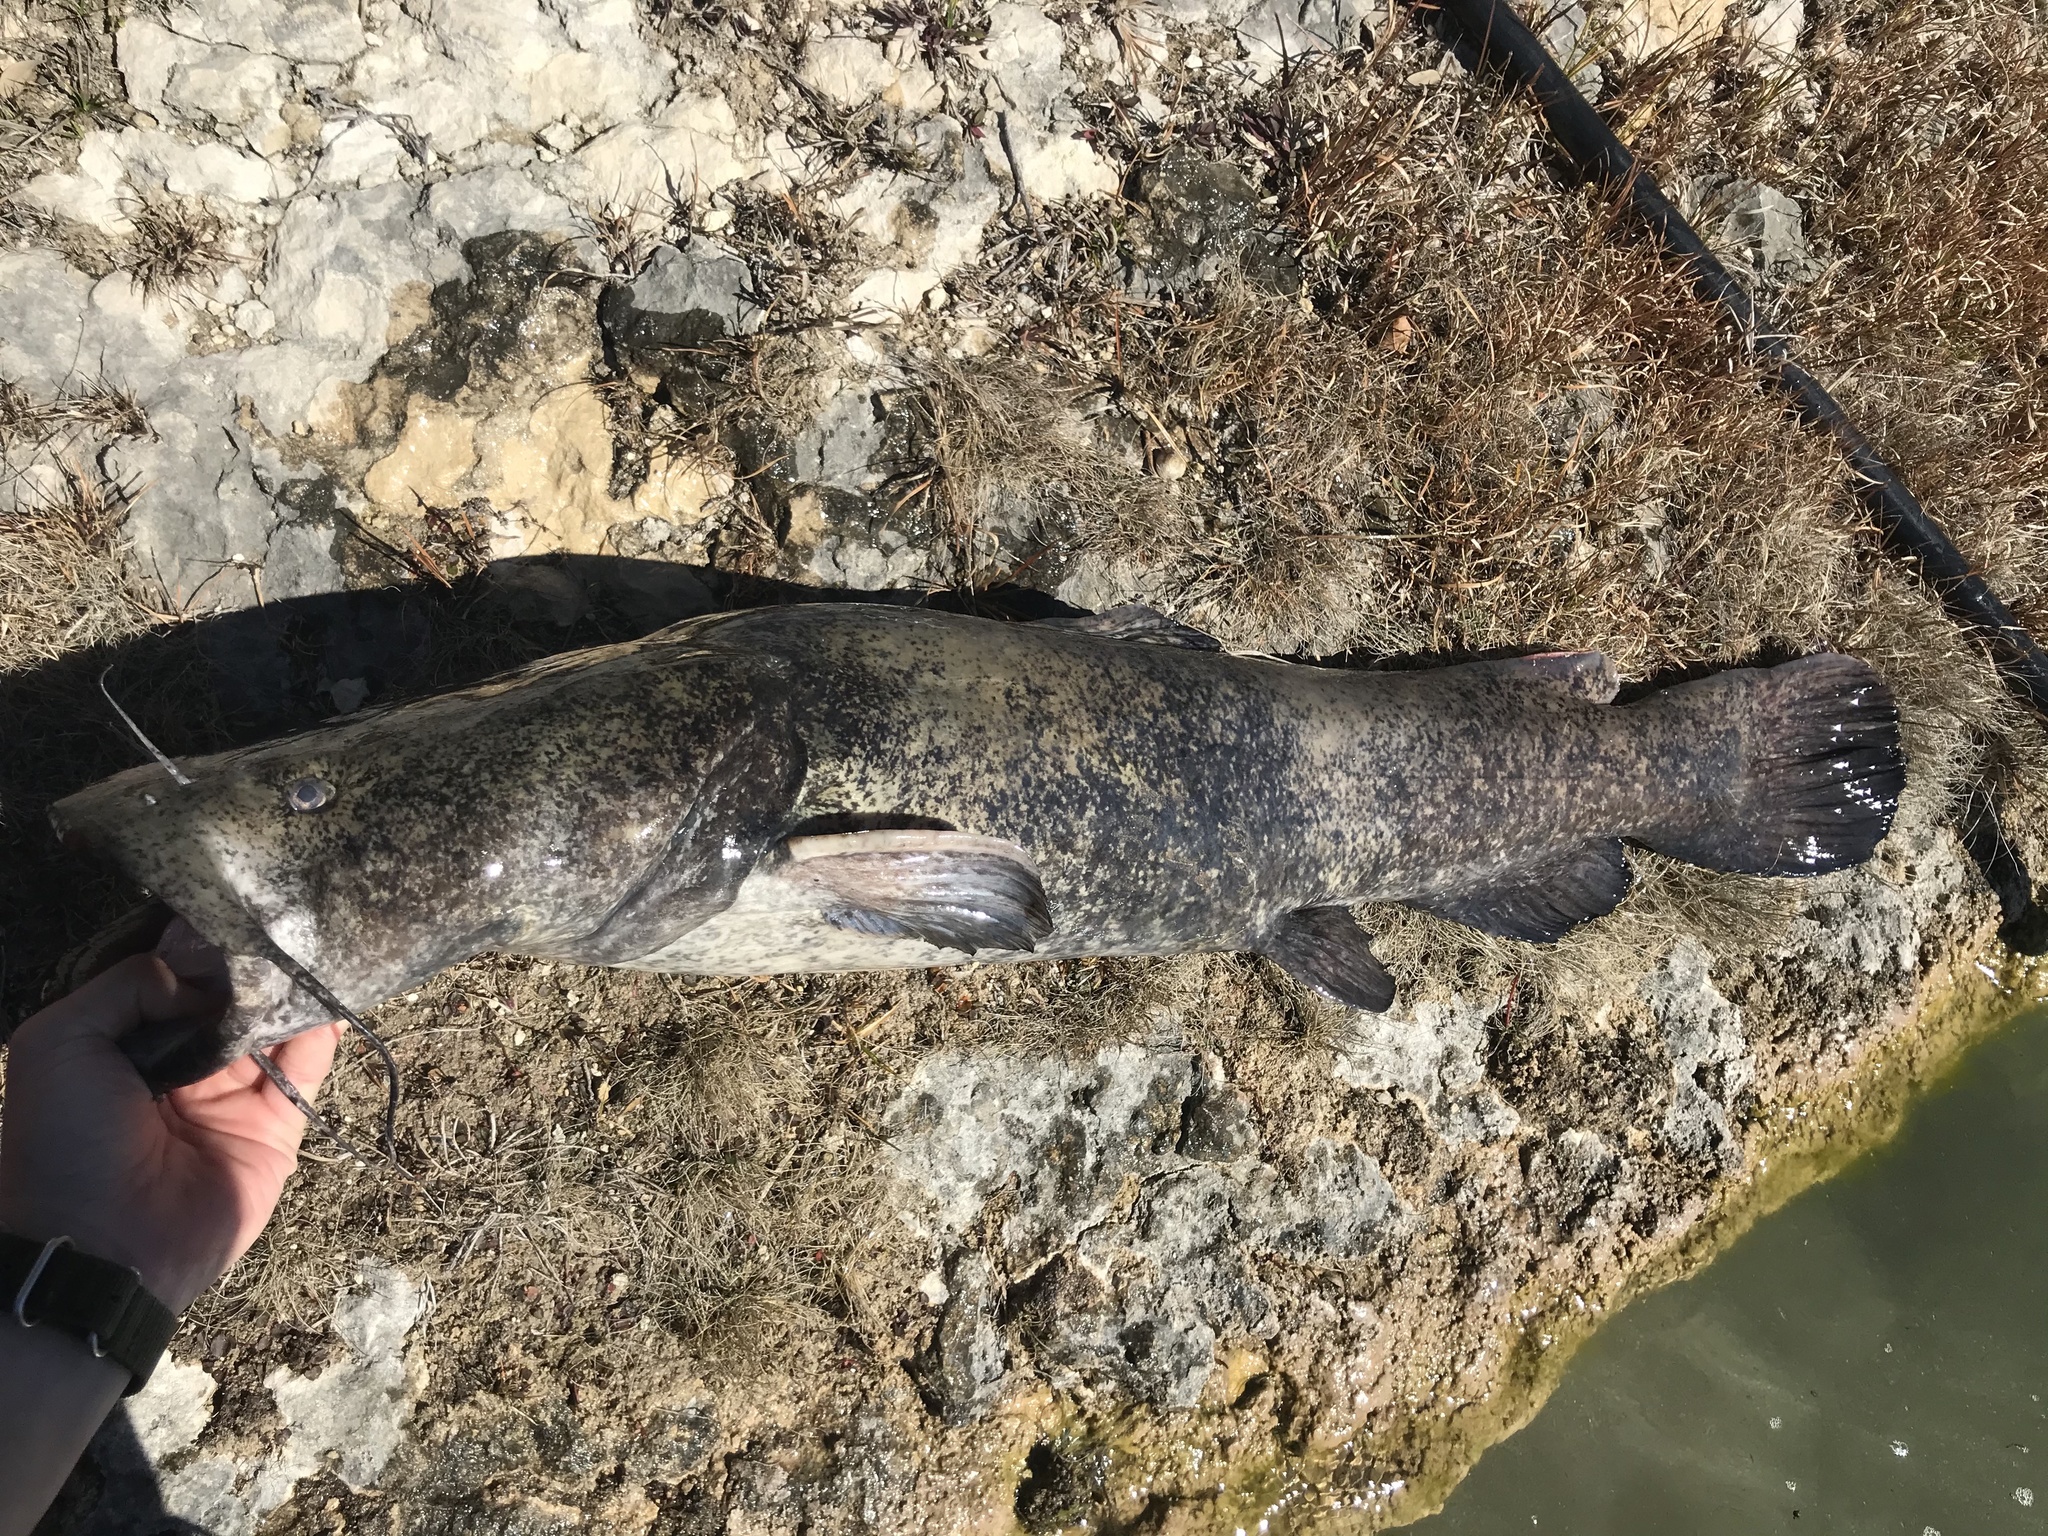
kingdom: Animalia
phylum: Chordata
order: Siluriformes
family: Ictaluridae
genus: Pylodictis
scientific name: Pylodictis olivaris
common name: Flathead catfish
